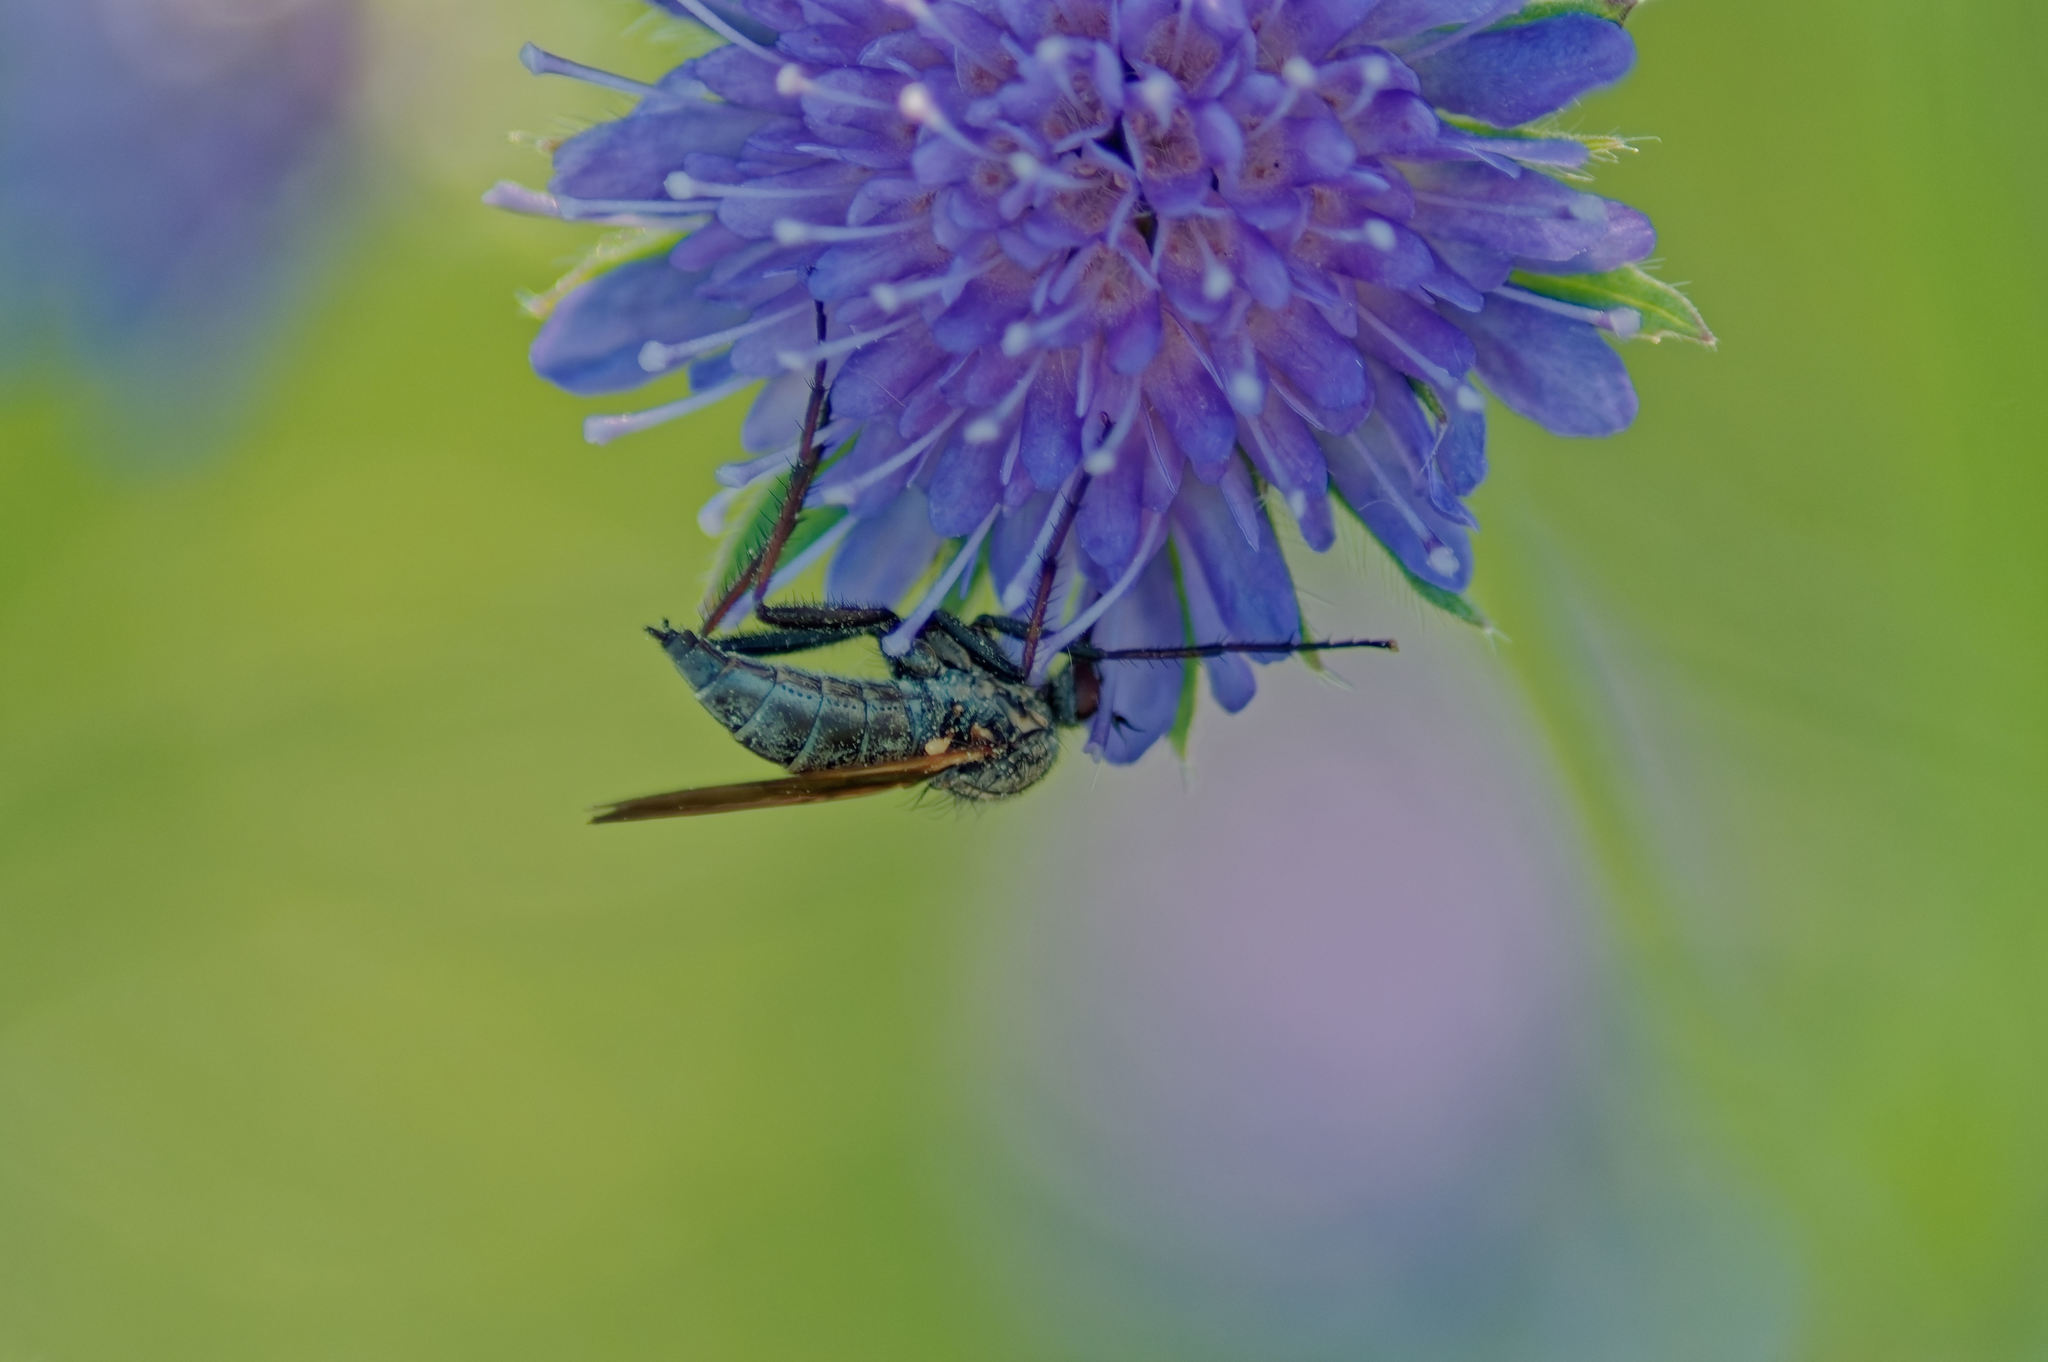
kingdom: Animalia
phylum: Arthropoda
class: Insecta
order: Diptera
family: Empididae
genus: Empis
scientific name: Empis tessellata
